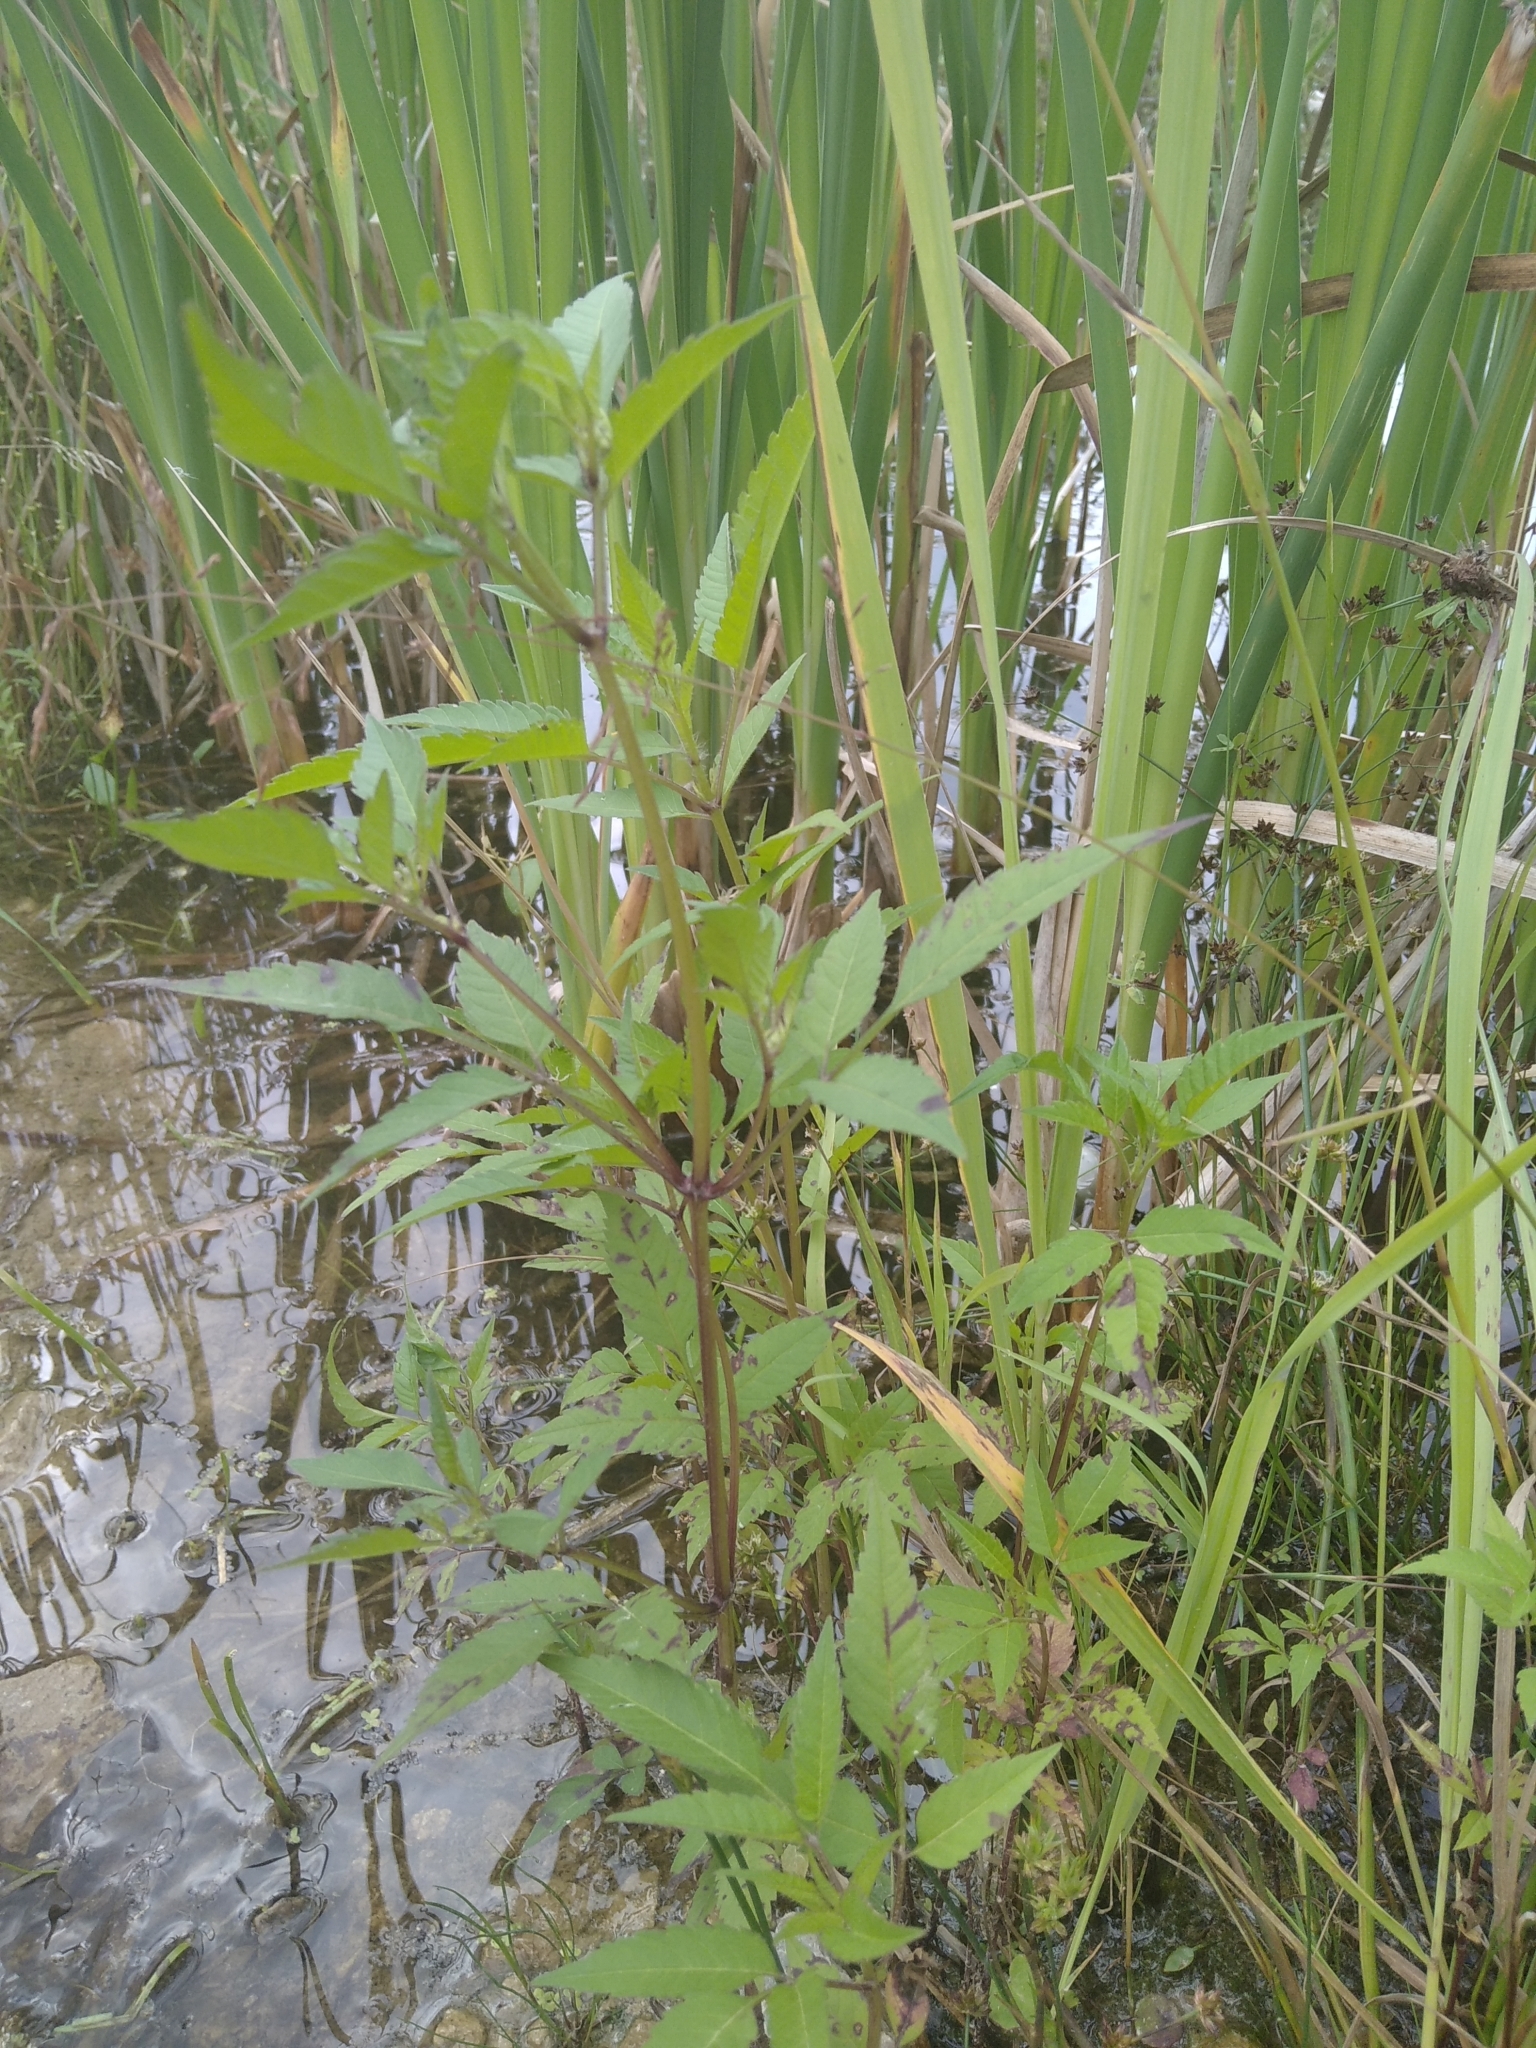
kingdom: Plantae
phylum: Tracheophyta
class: Magnoliopsida
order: Asterales
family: Asteraceae
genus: Bidens
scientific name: Bidens frondosa
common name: Beggarticks
